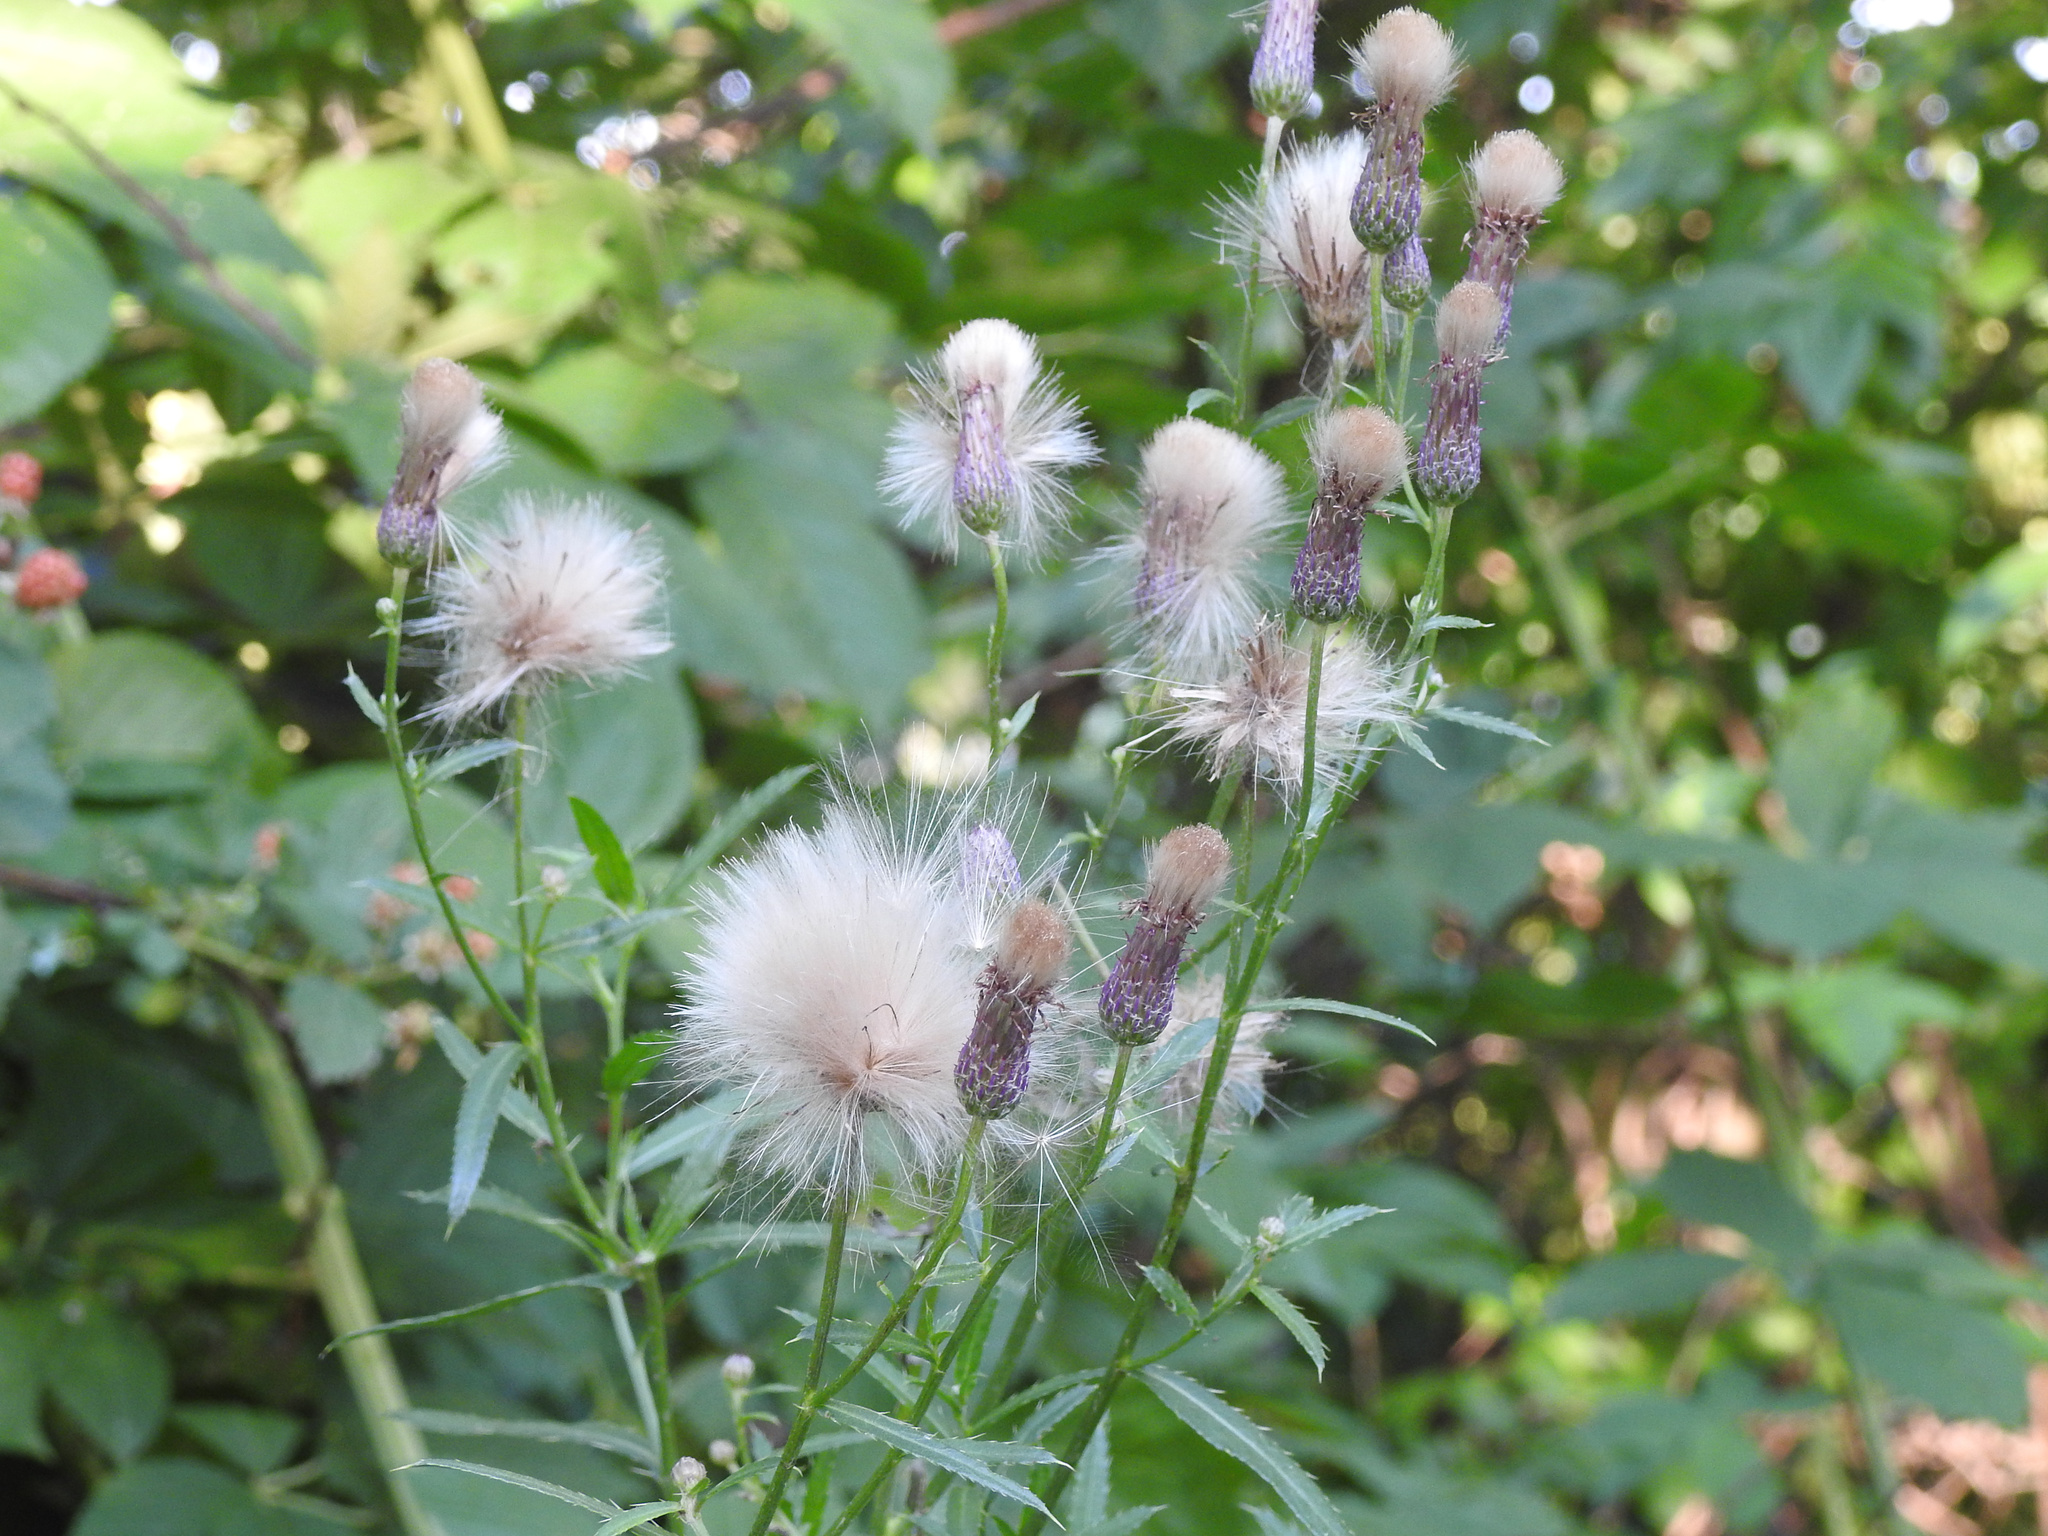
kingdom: Plantae
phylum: Tracheophyta
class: Magnoliopsida
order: Asterales
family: Asteraceae
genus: Cirsium
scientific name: Cirsium arvense
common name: Creeping thistle
